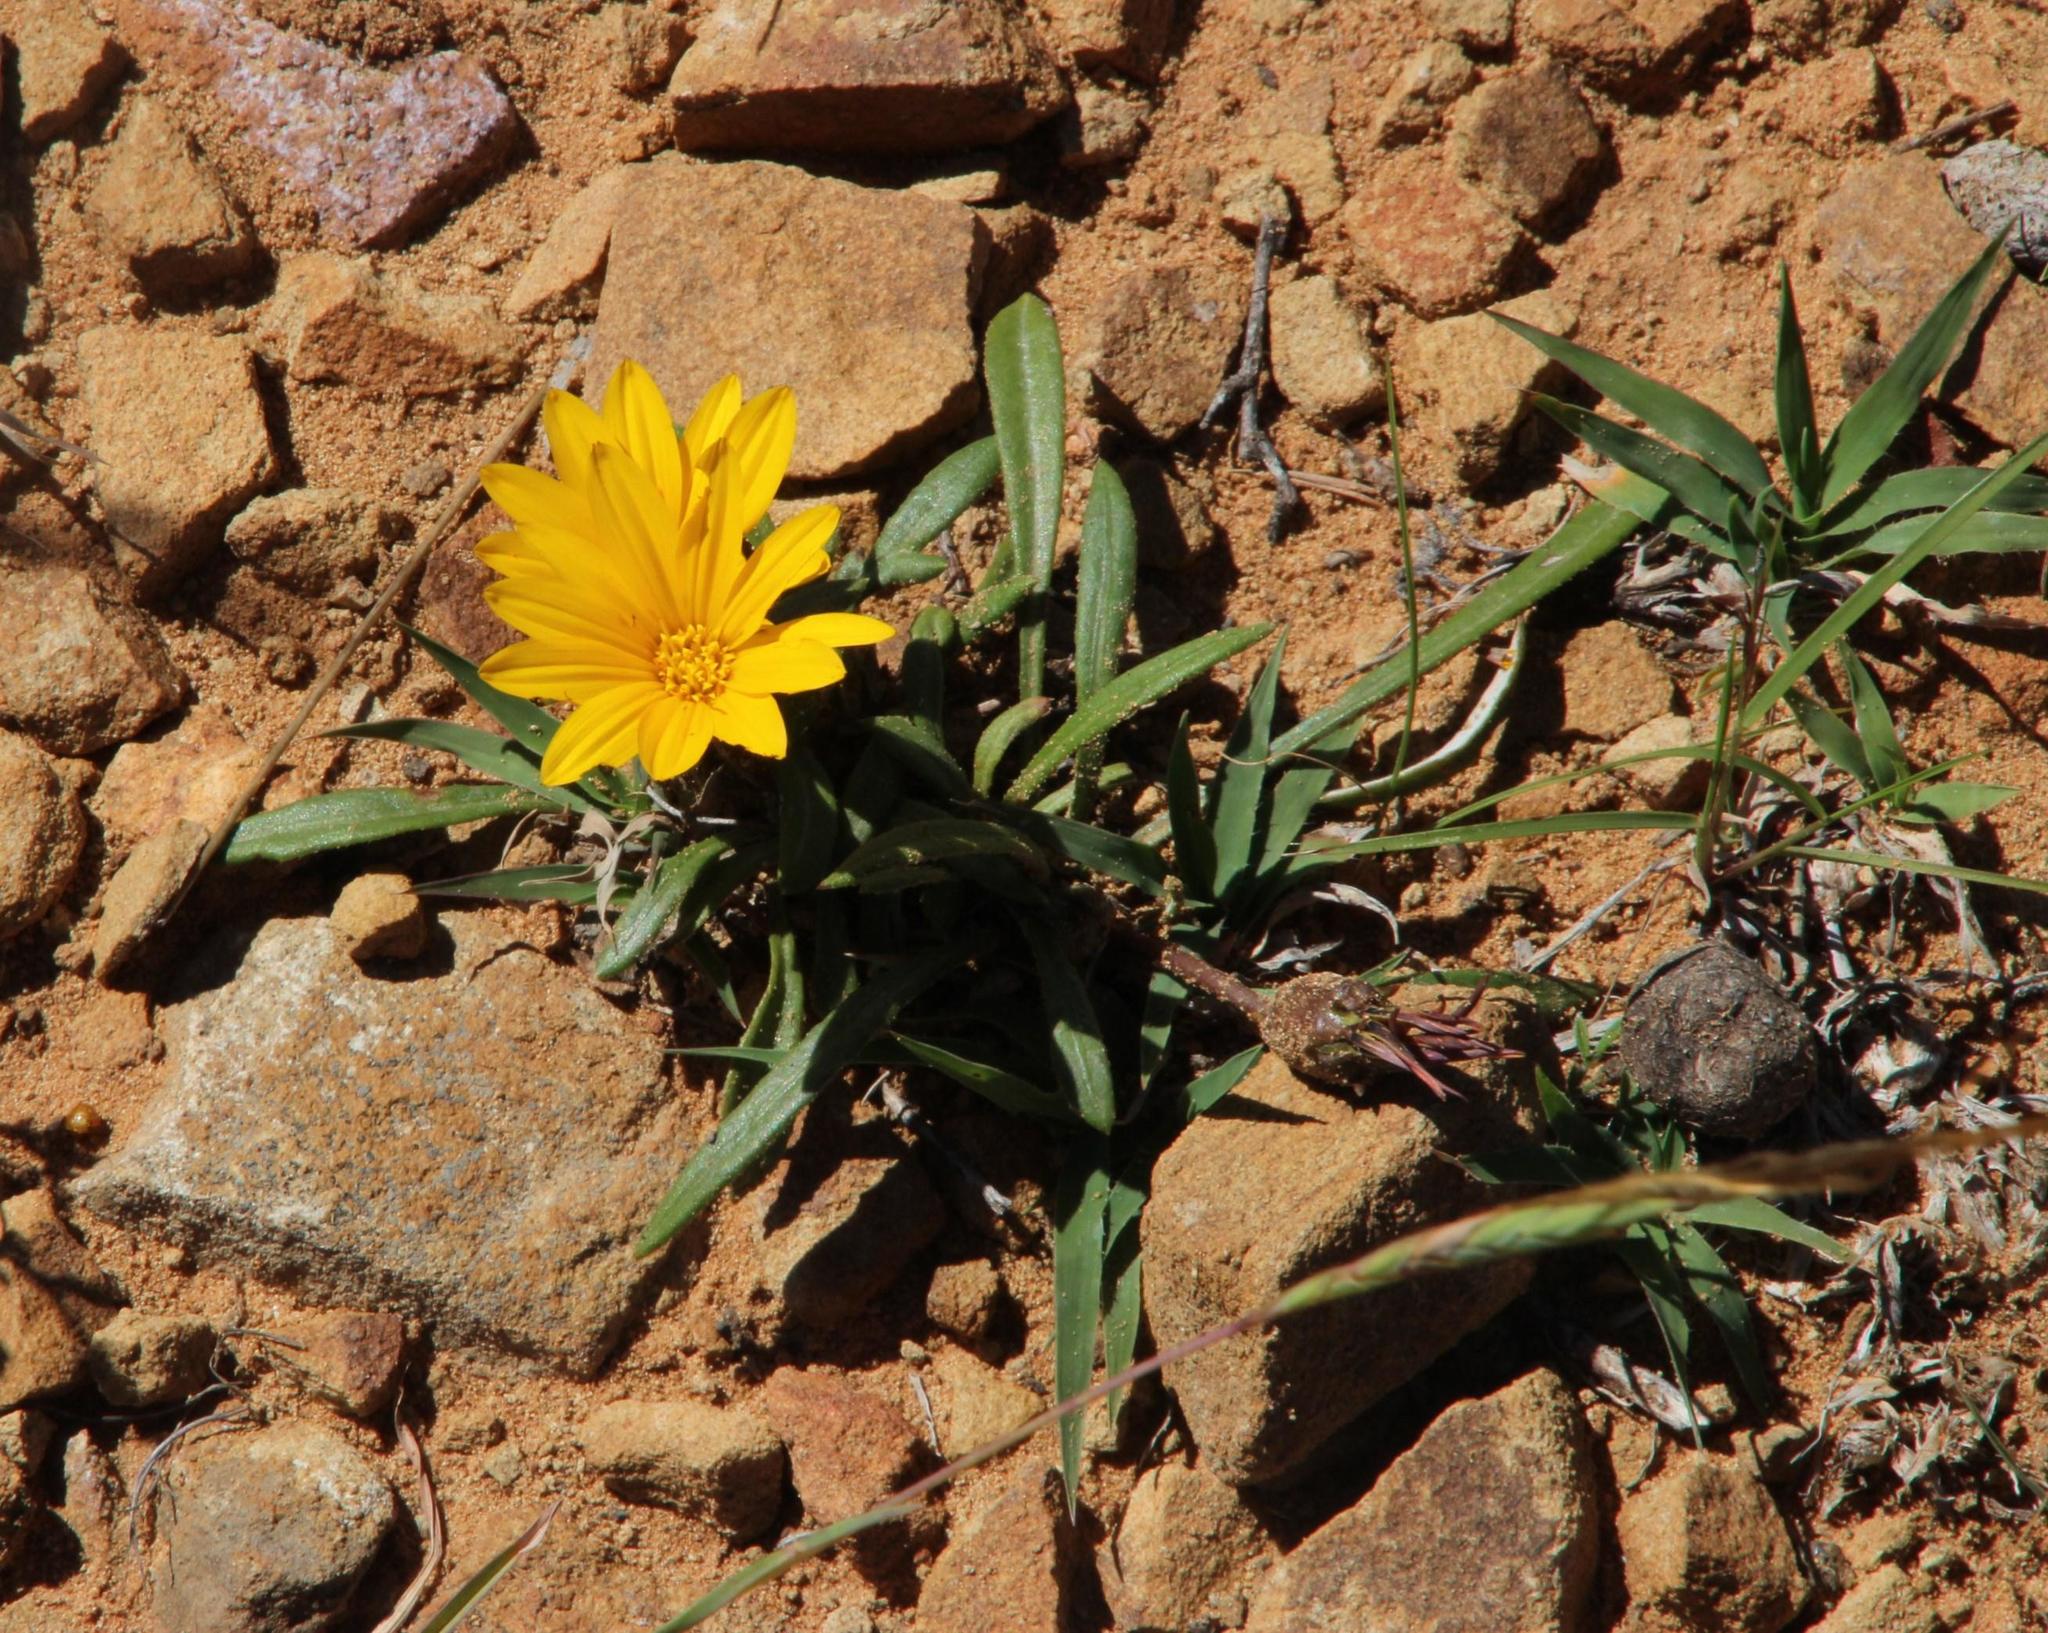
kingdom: Plantae
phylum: Tracheophyta
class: Magnoliopsida
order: Asterales
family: Asteraceae
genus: Gazania
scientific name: Gazania krebsiana
